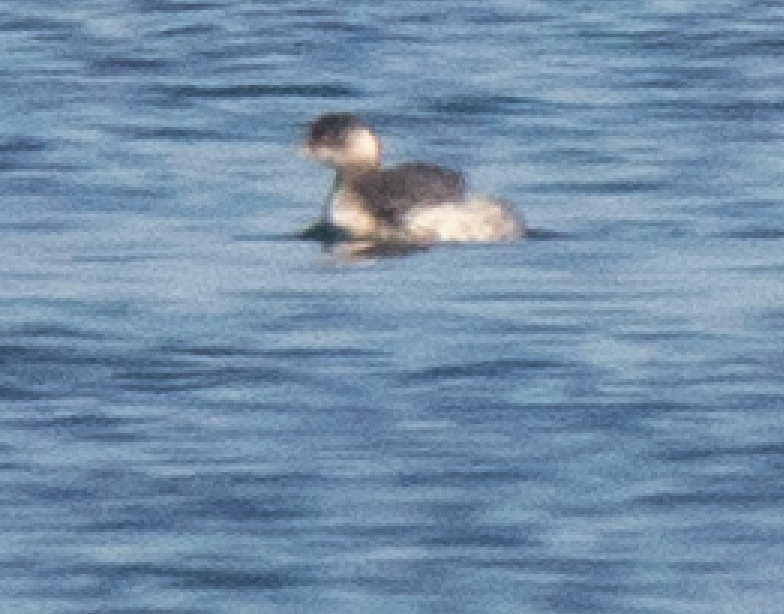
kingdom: Animalia
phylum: Chordata
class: Aves
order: Podicipediformes
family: Podicipedidae
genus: Podiceps
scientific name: Podiceps nigricollis
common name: Black-necked grebe
